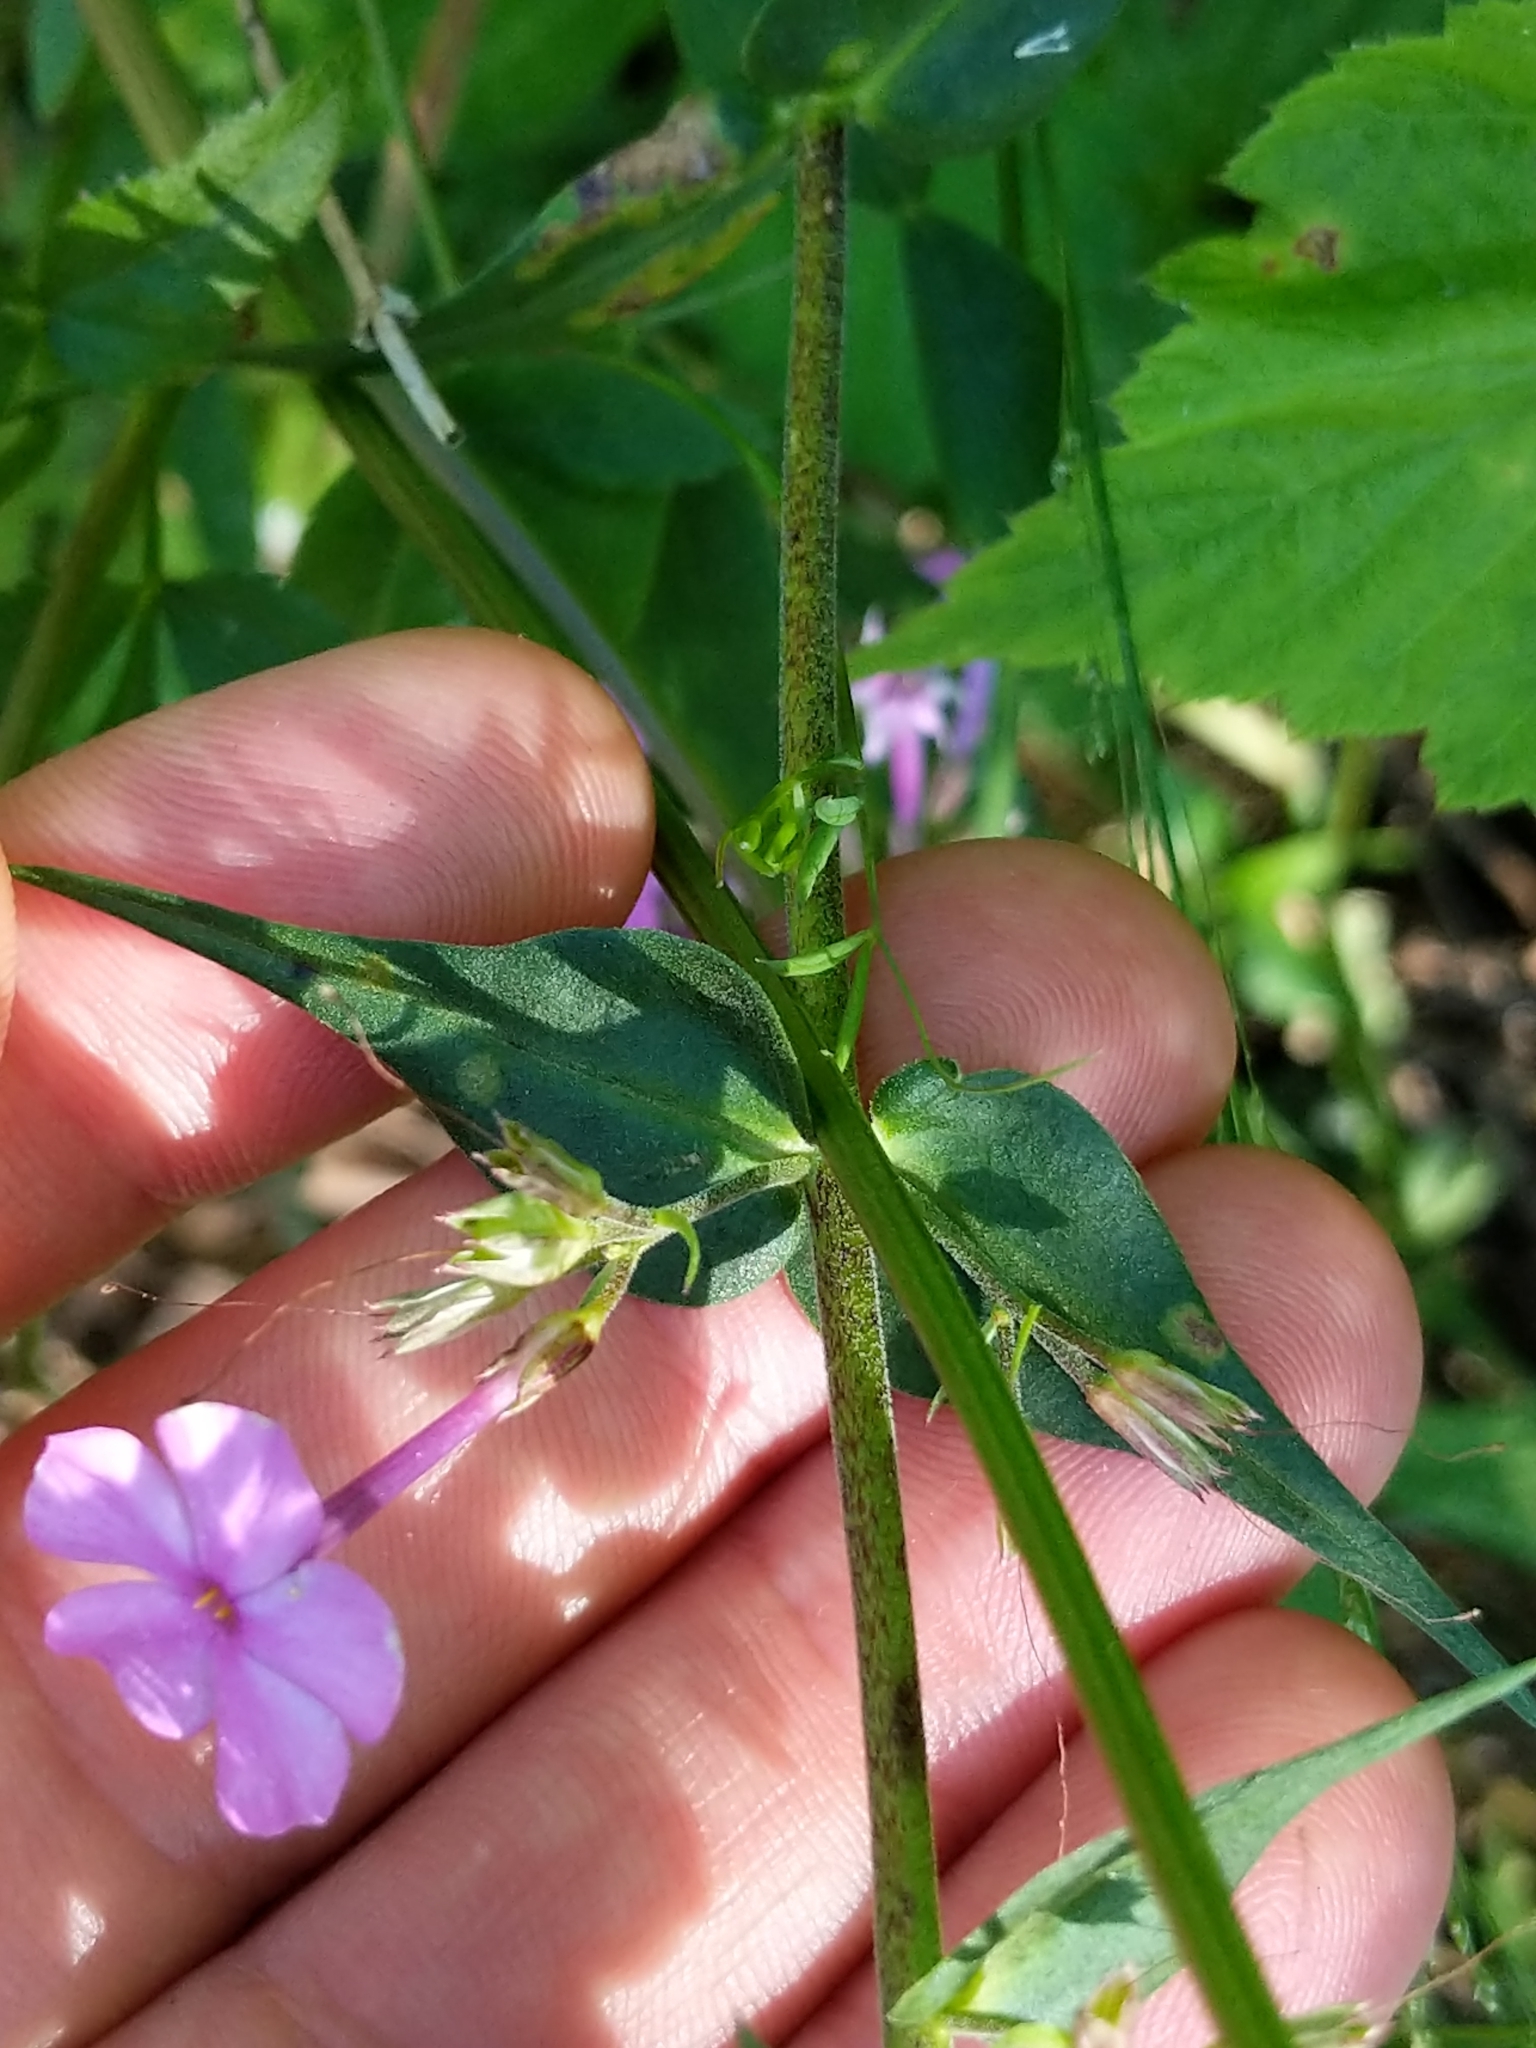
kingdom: Plantae
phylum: Tracheophyta
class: Magnoliopsida
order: Ericales
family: Polemoniaceae
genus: Phlox
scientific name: Phlox maculata
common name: Meadow phlox
